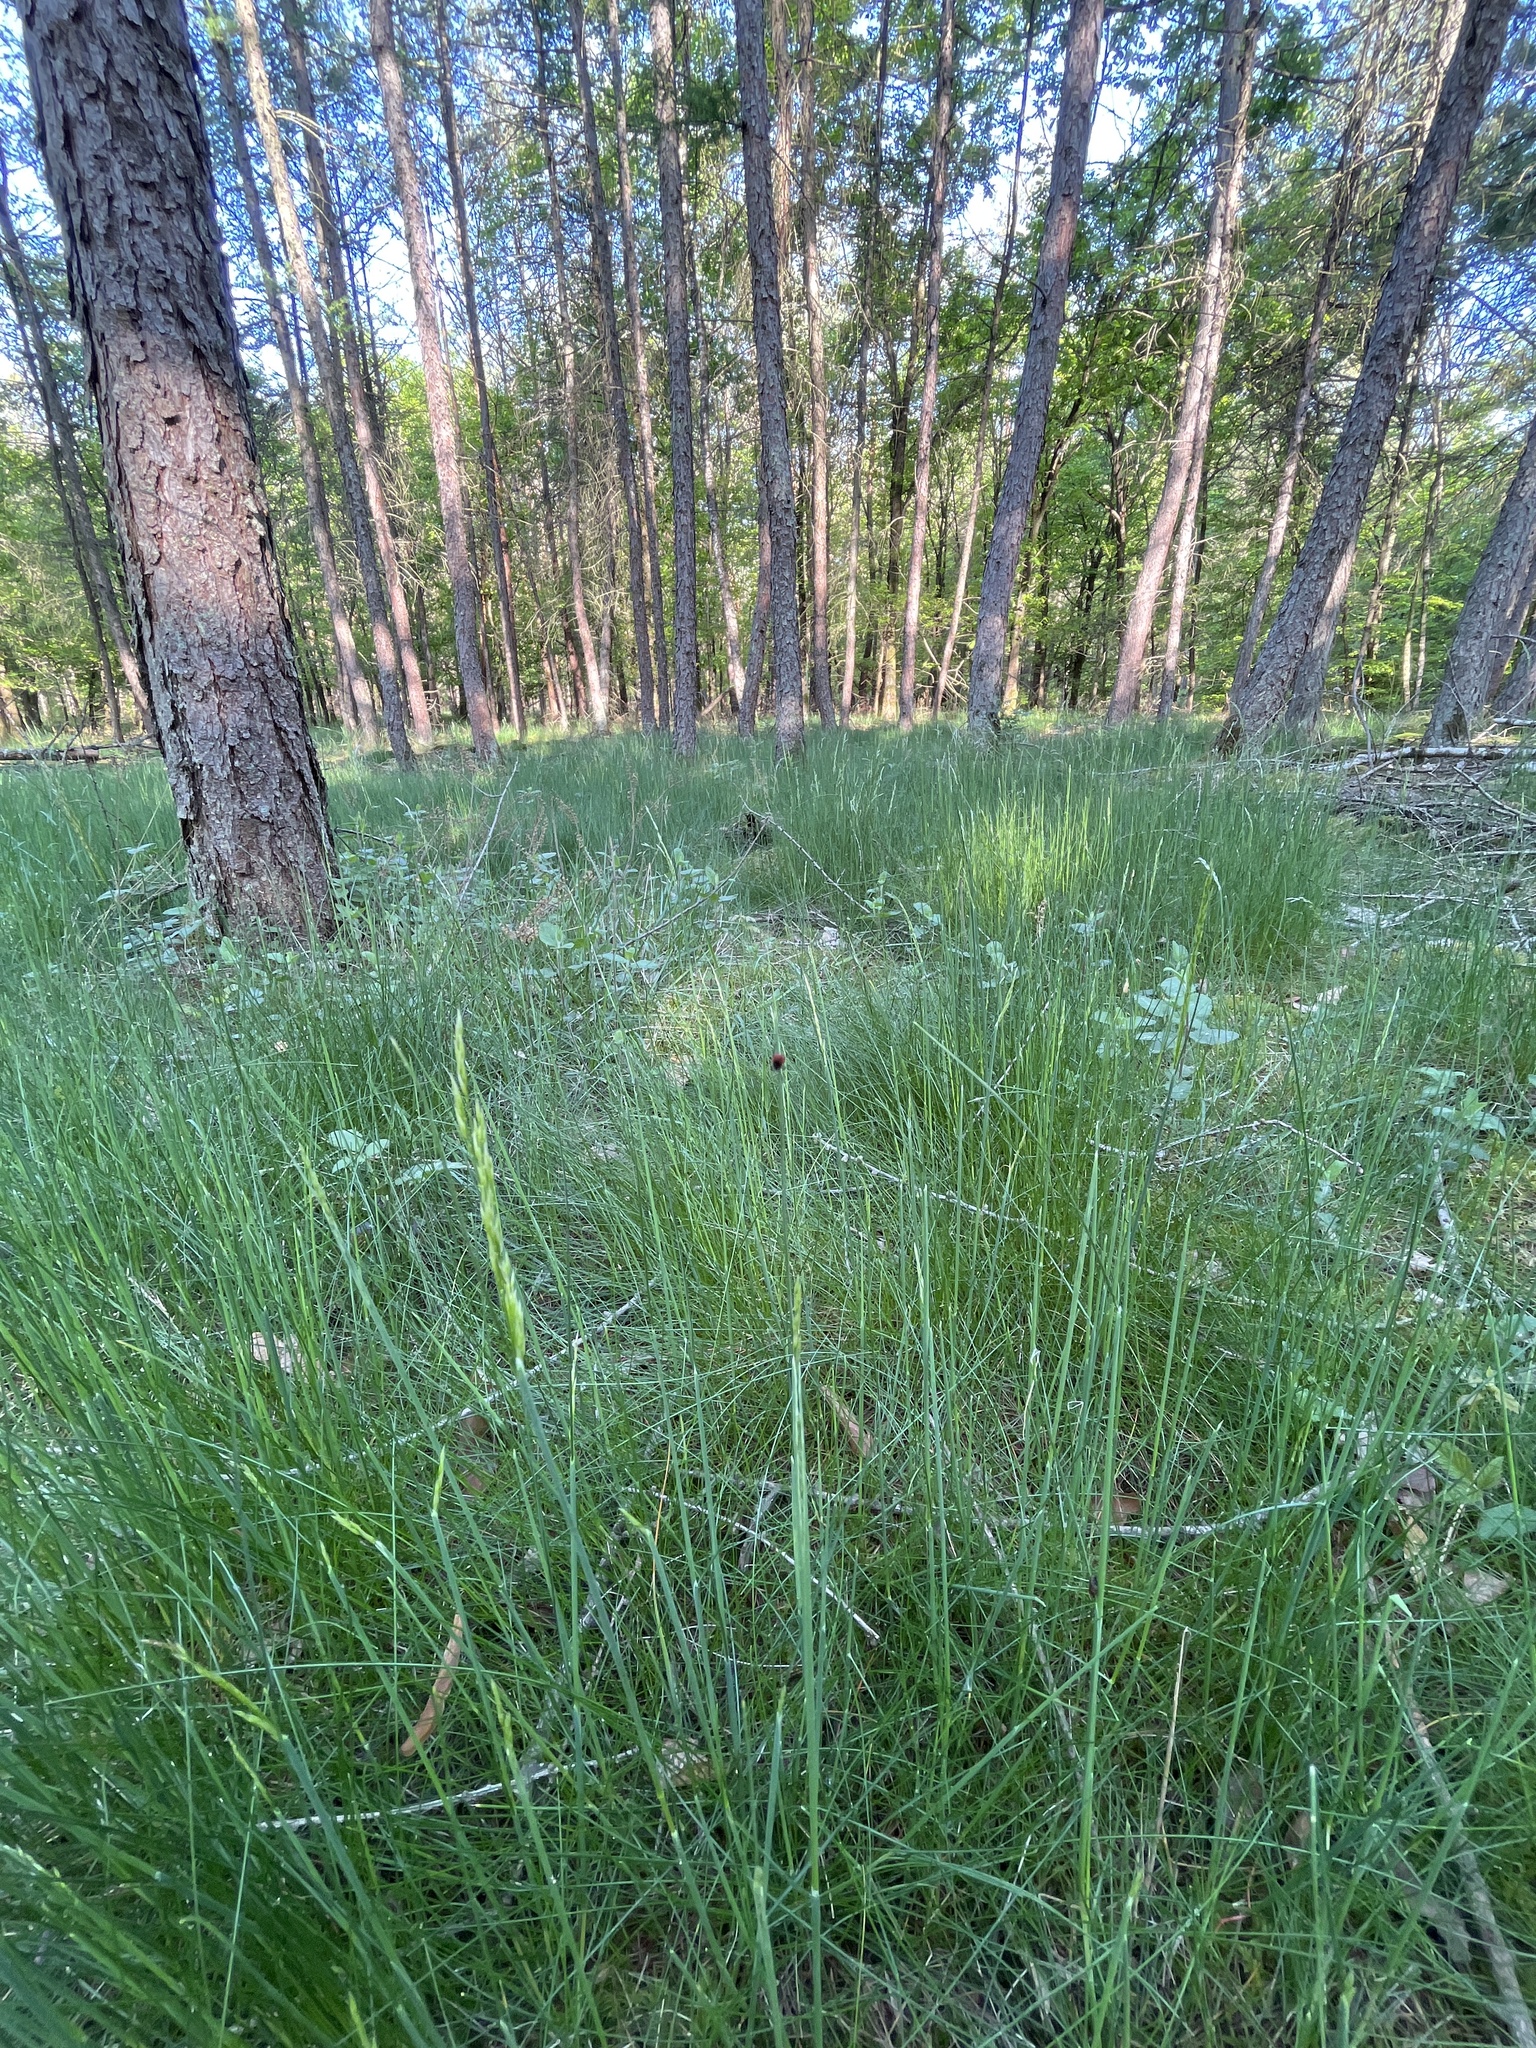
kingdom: Animalia
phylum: Arthropoda
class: Arachnida
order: Ixodida
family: Ixodidae
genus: Ixodes
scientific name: Ixodes ricinus
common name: Castor bean tick
